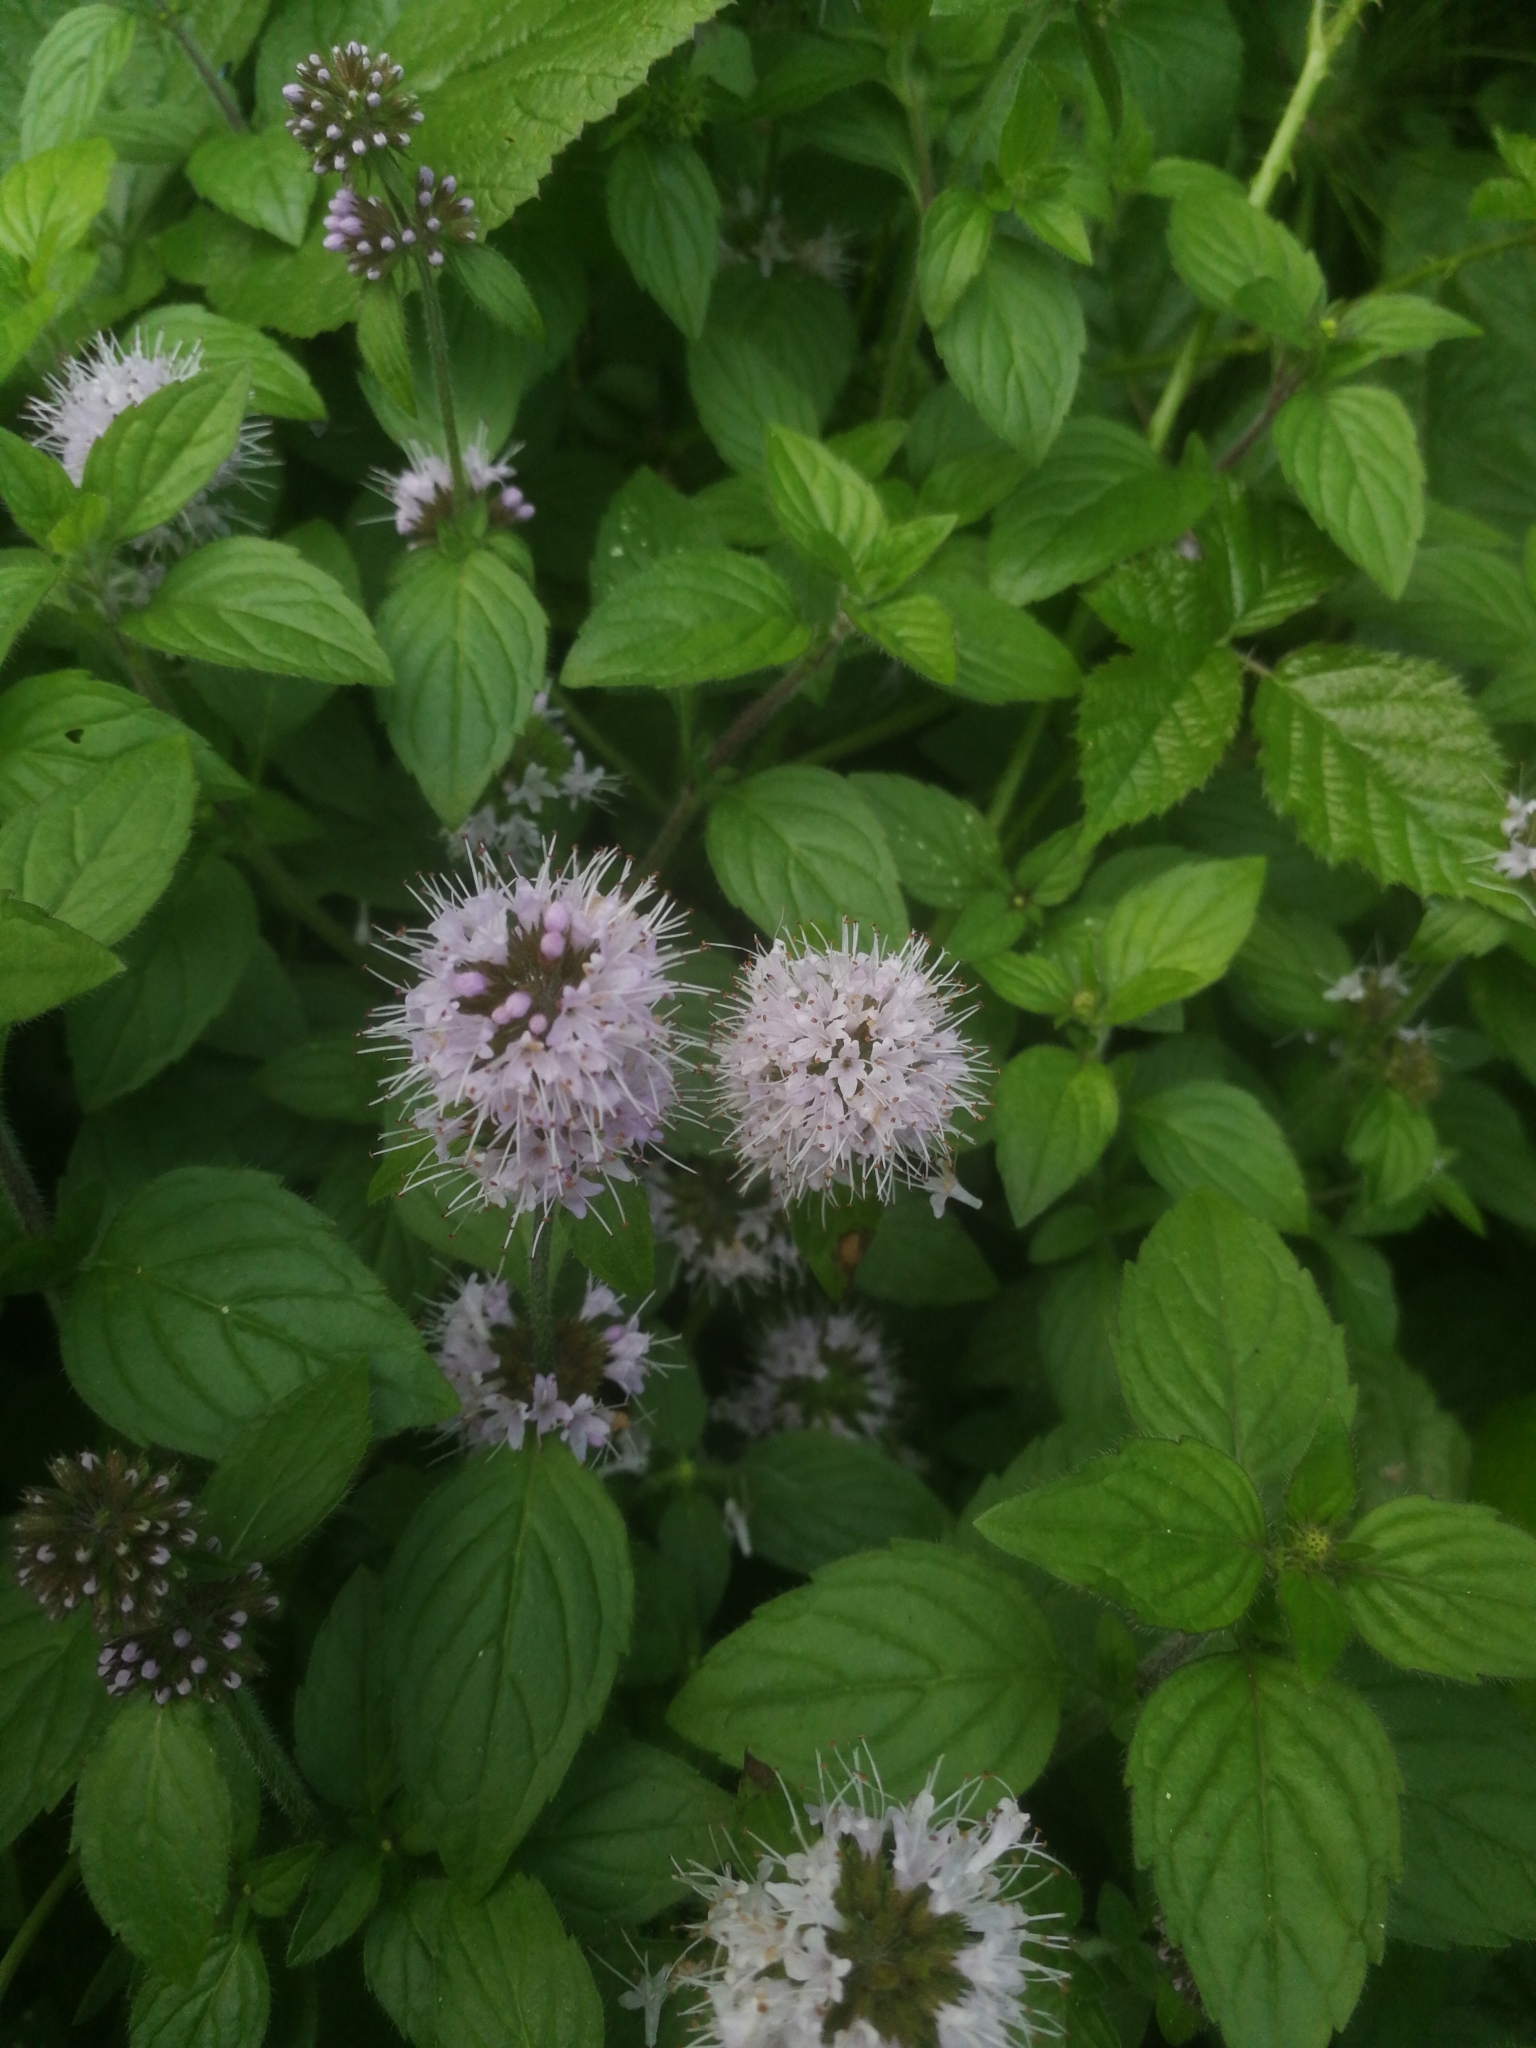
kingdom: Plantae
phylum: Tracheophyta
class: Magnoliopsida
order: Lamiales
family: Lamiaceae
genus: Mentha
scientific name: Mentha aquatica
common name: Water mint
